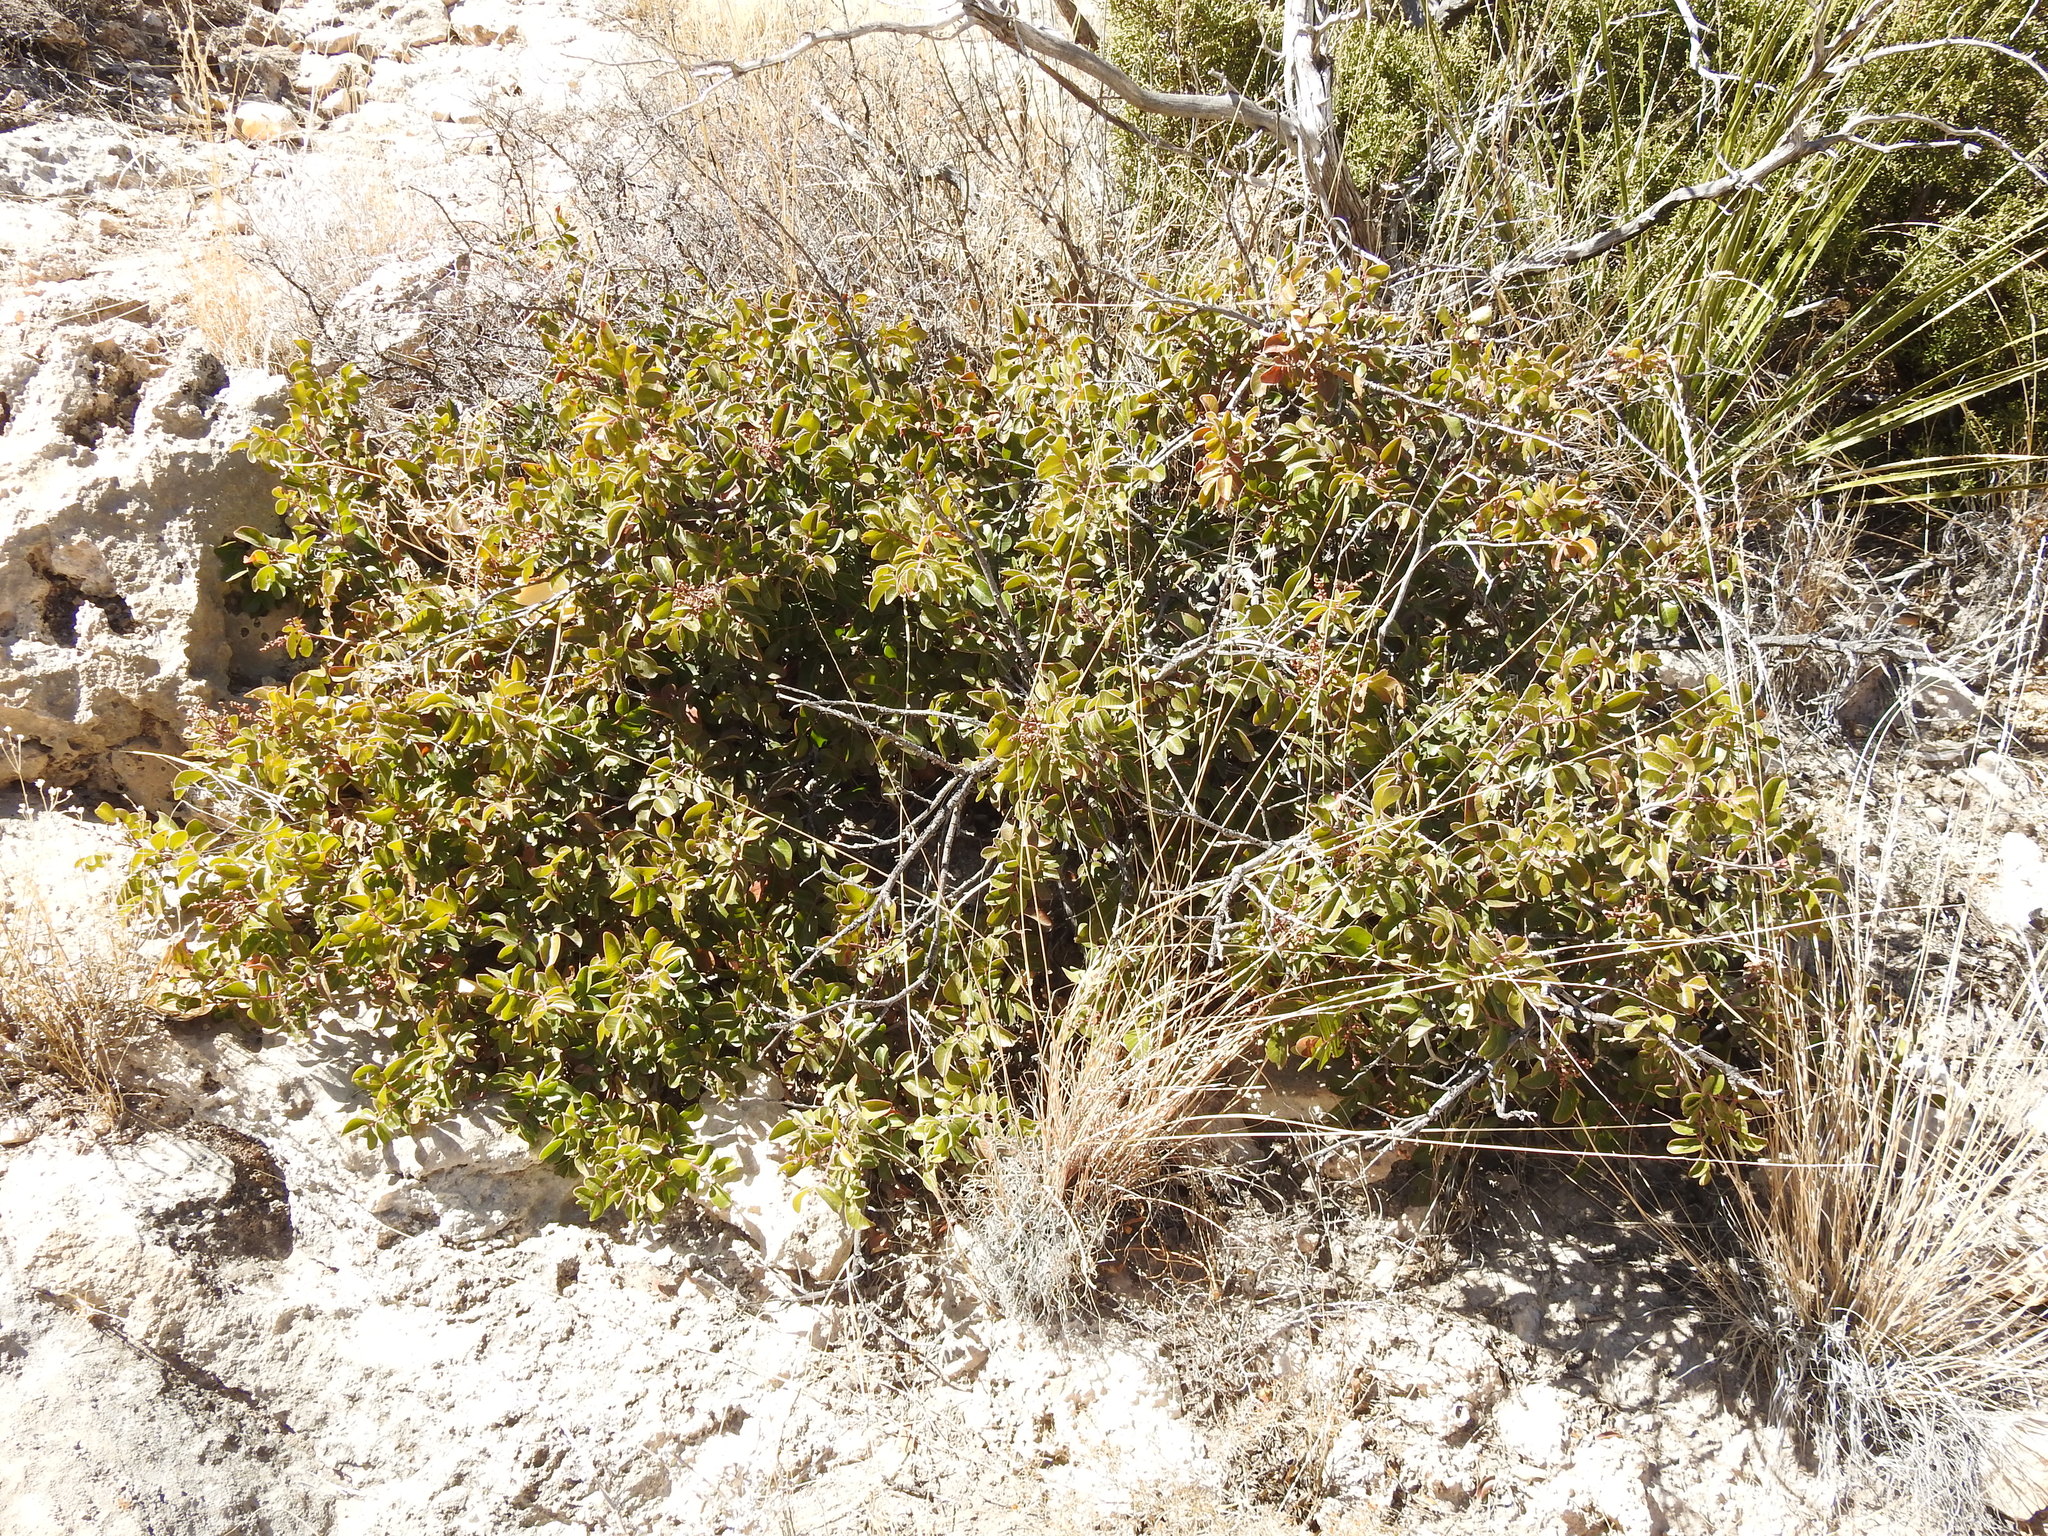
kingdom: Plantae
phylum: Tracheophyta
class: Magnoliopsida
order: Sapindales
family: Anacardiaceae
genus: Rhus
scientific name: Rhus virens
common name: Evergreen sumac
